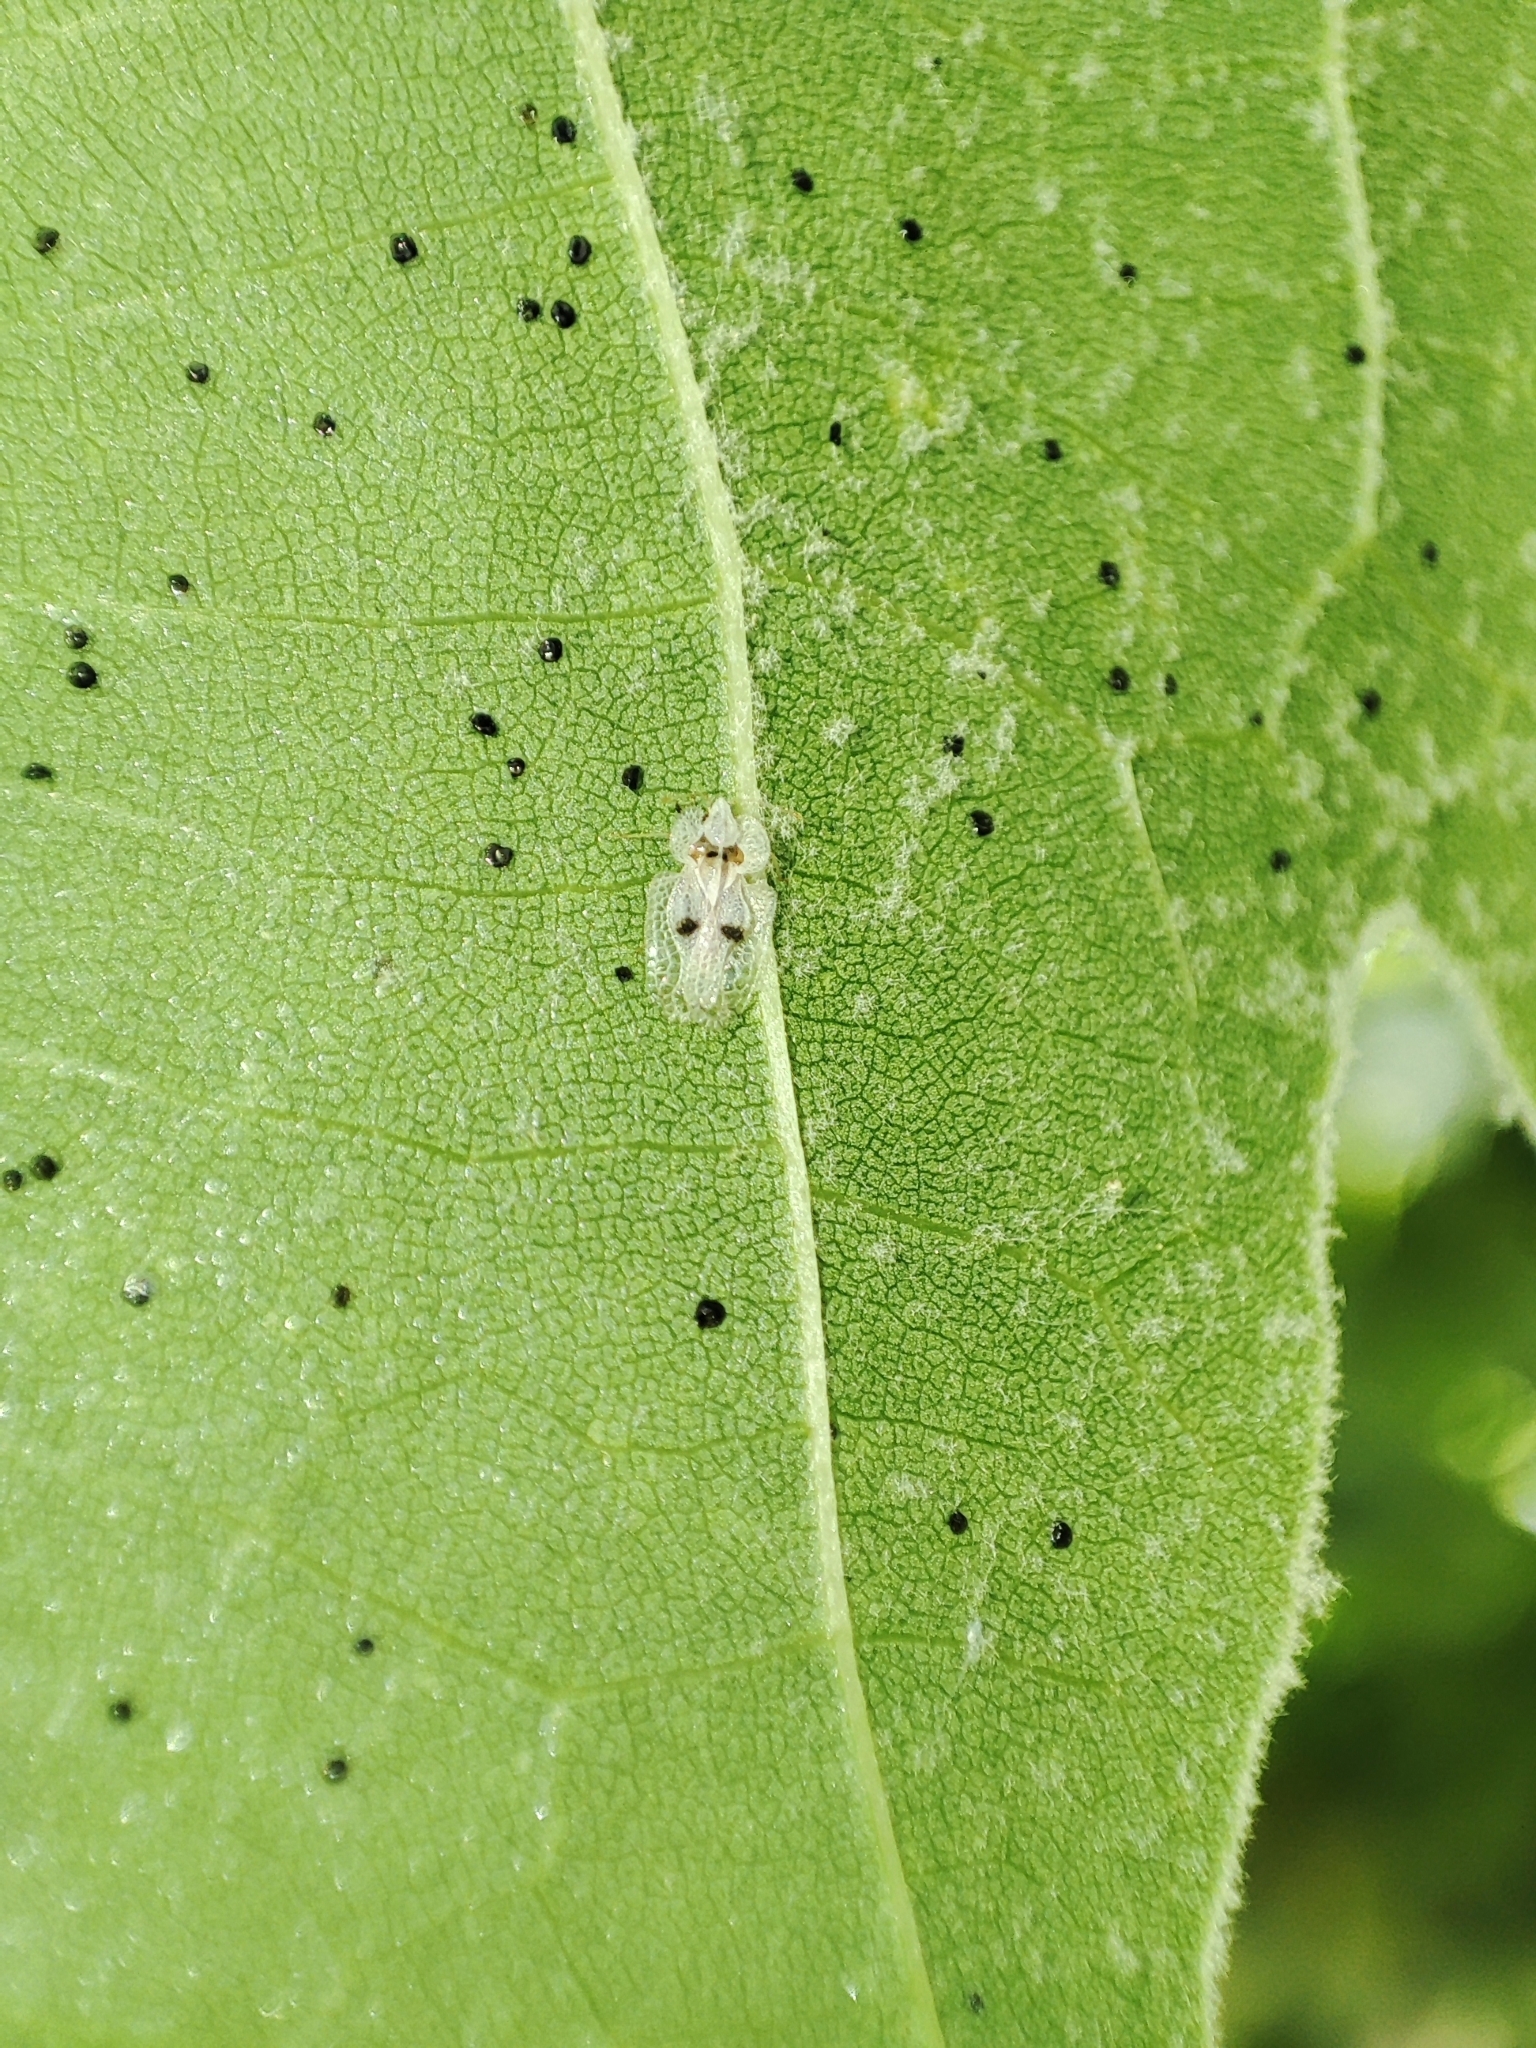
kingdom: Animalia
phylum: Arthropoda
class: Insecta
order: Hemiptera
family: Tingidae
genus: Corythucha
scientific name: Corythucha ciliata
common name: Sycamore lace bug
